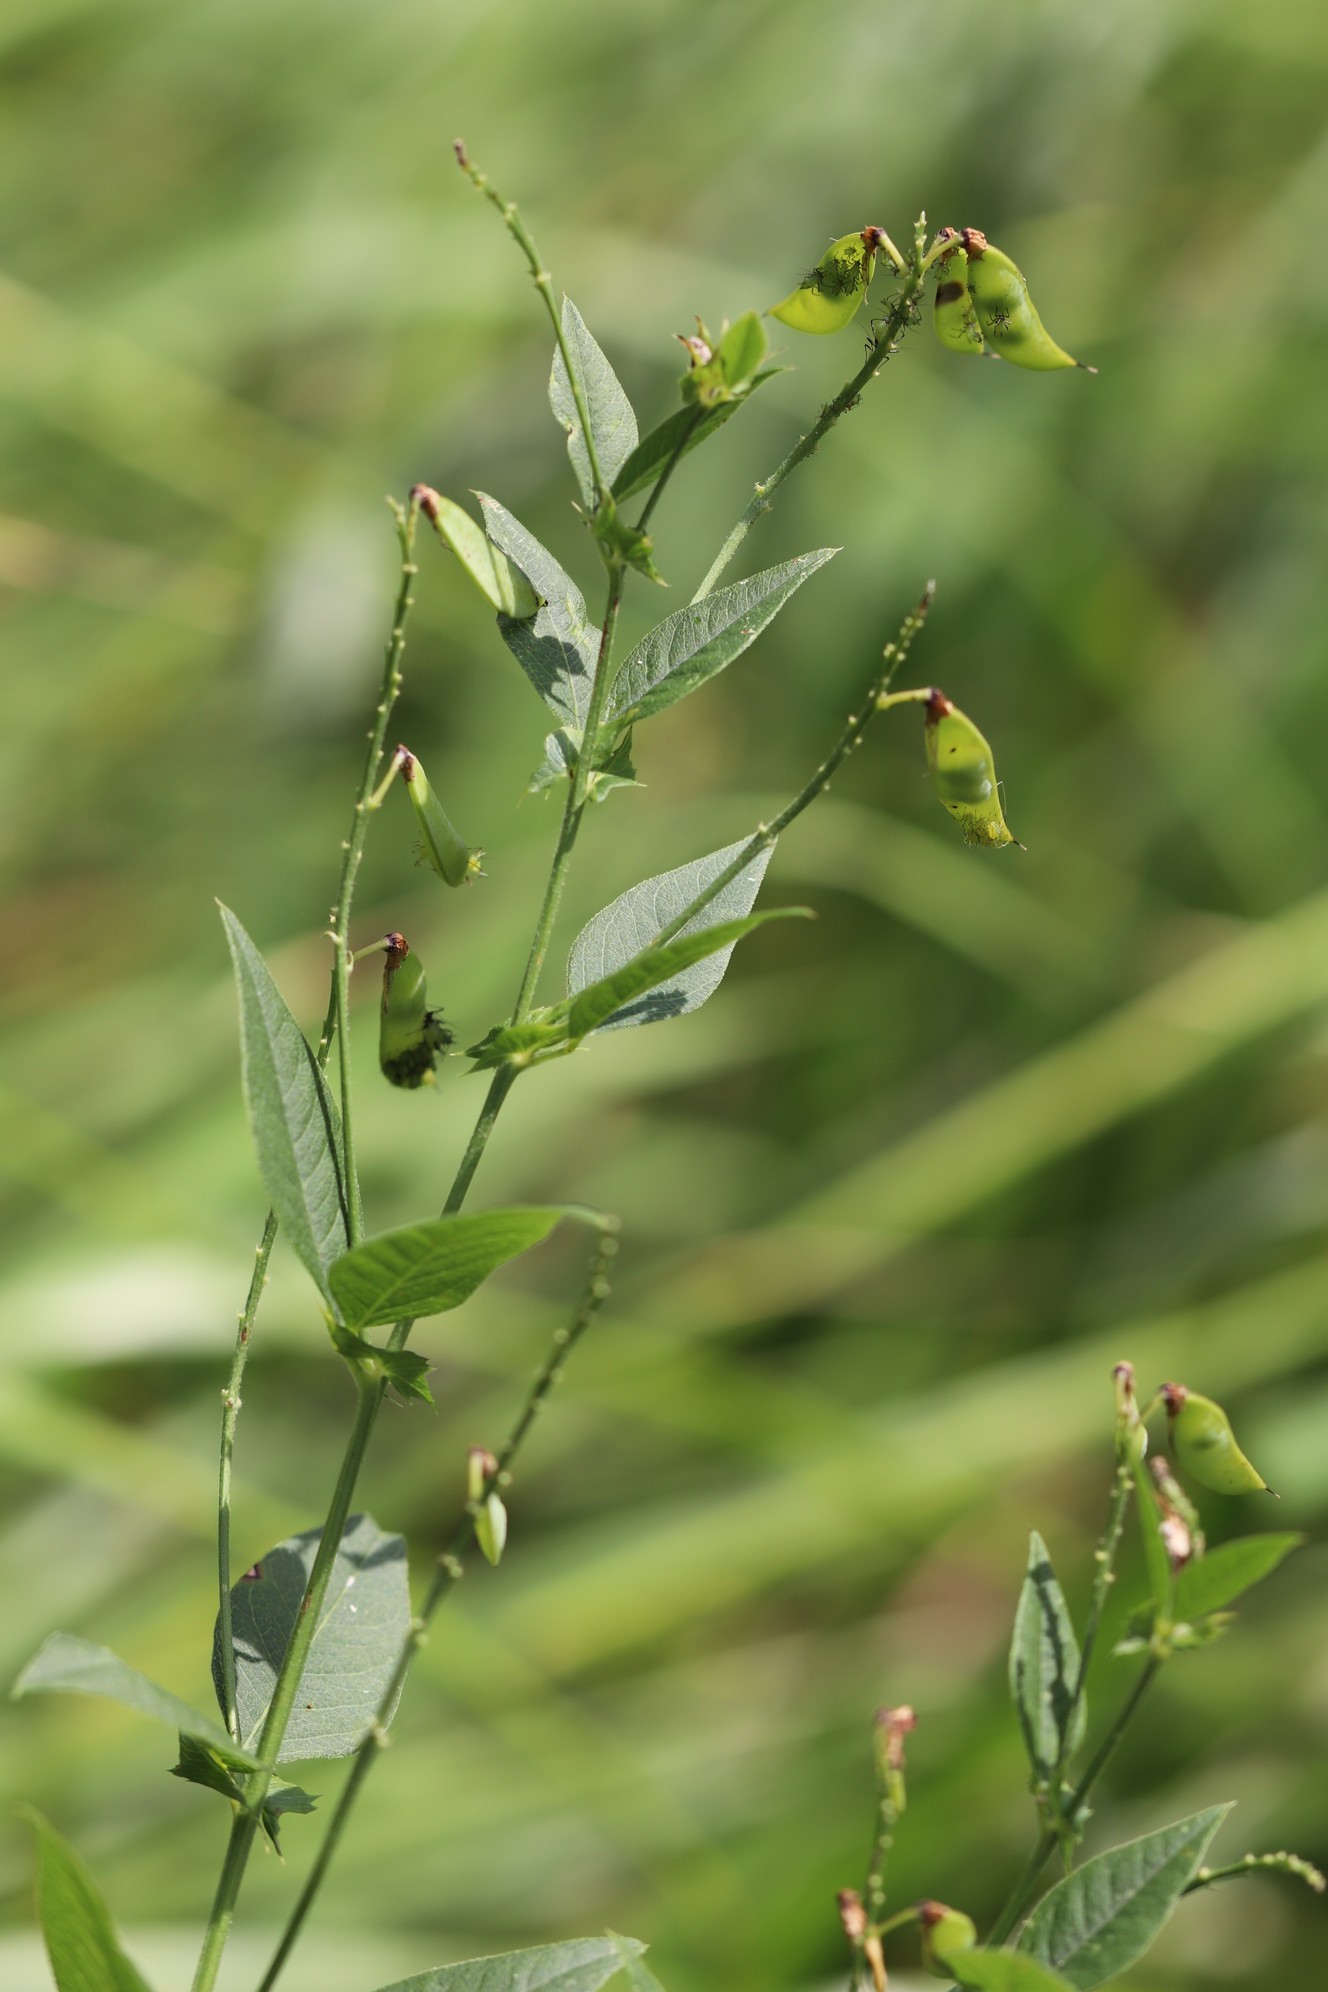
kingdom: Plantae
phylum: Tracheophyta
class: Magnoliopsida
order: Fabales
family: Fabaceae
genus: Vicia
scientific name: Vicia unijuga
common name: Two-leaf vetch
